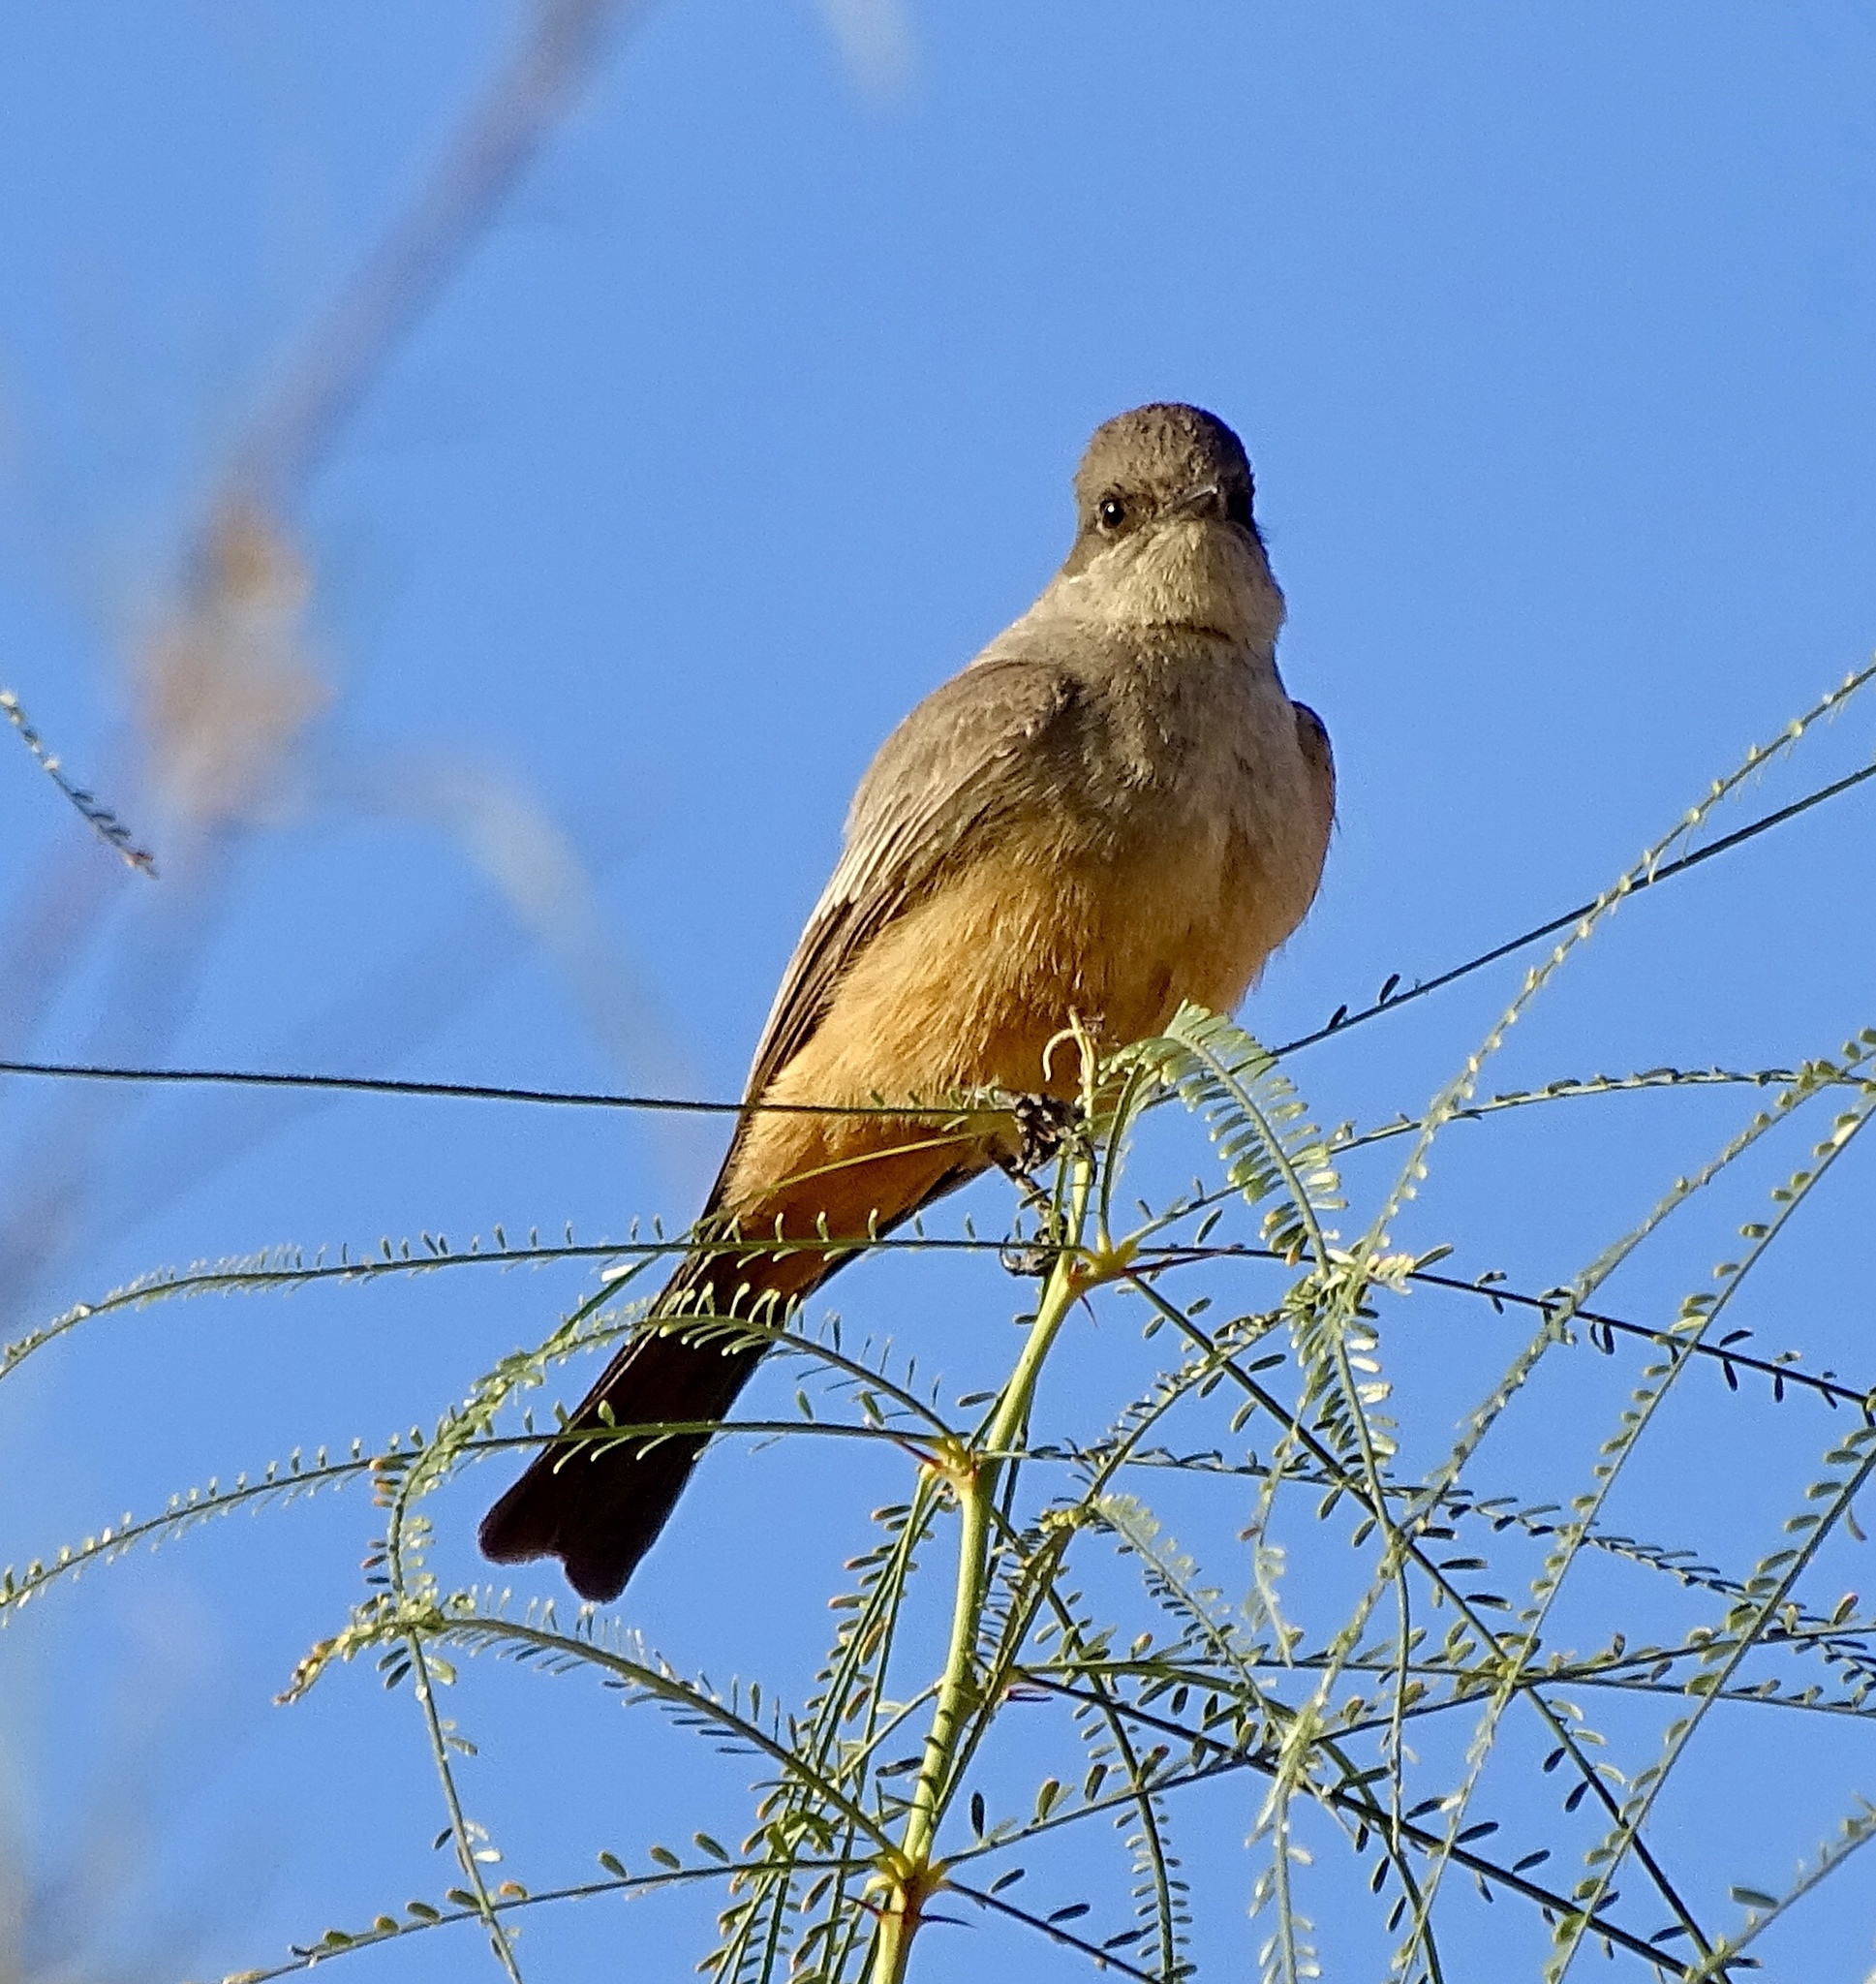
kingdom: Animalia
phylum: Chordata
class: Aves
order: Passeriformes
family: Tyrannidae
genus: Sayornis
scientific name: Sayornis saya
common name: Say's phoebe
